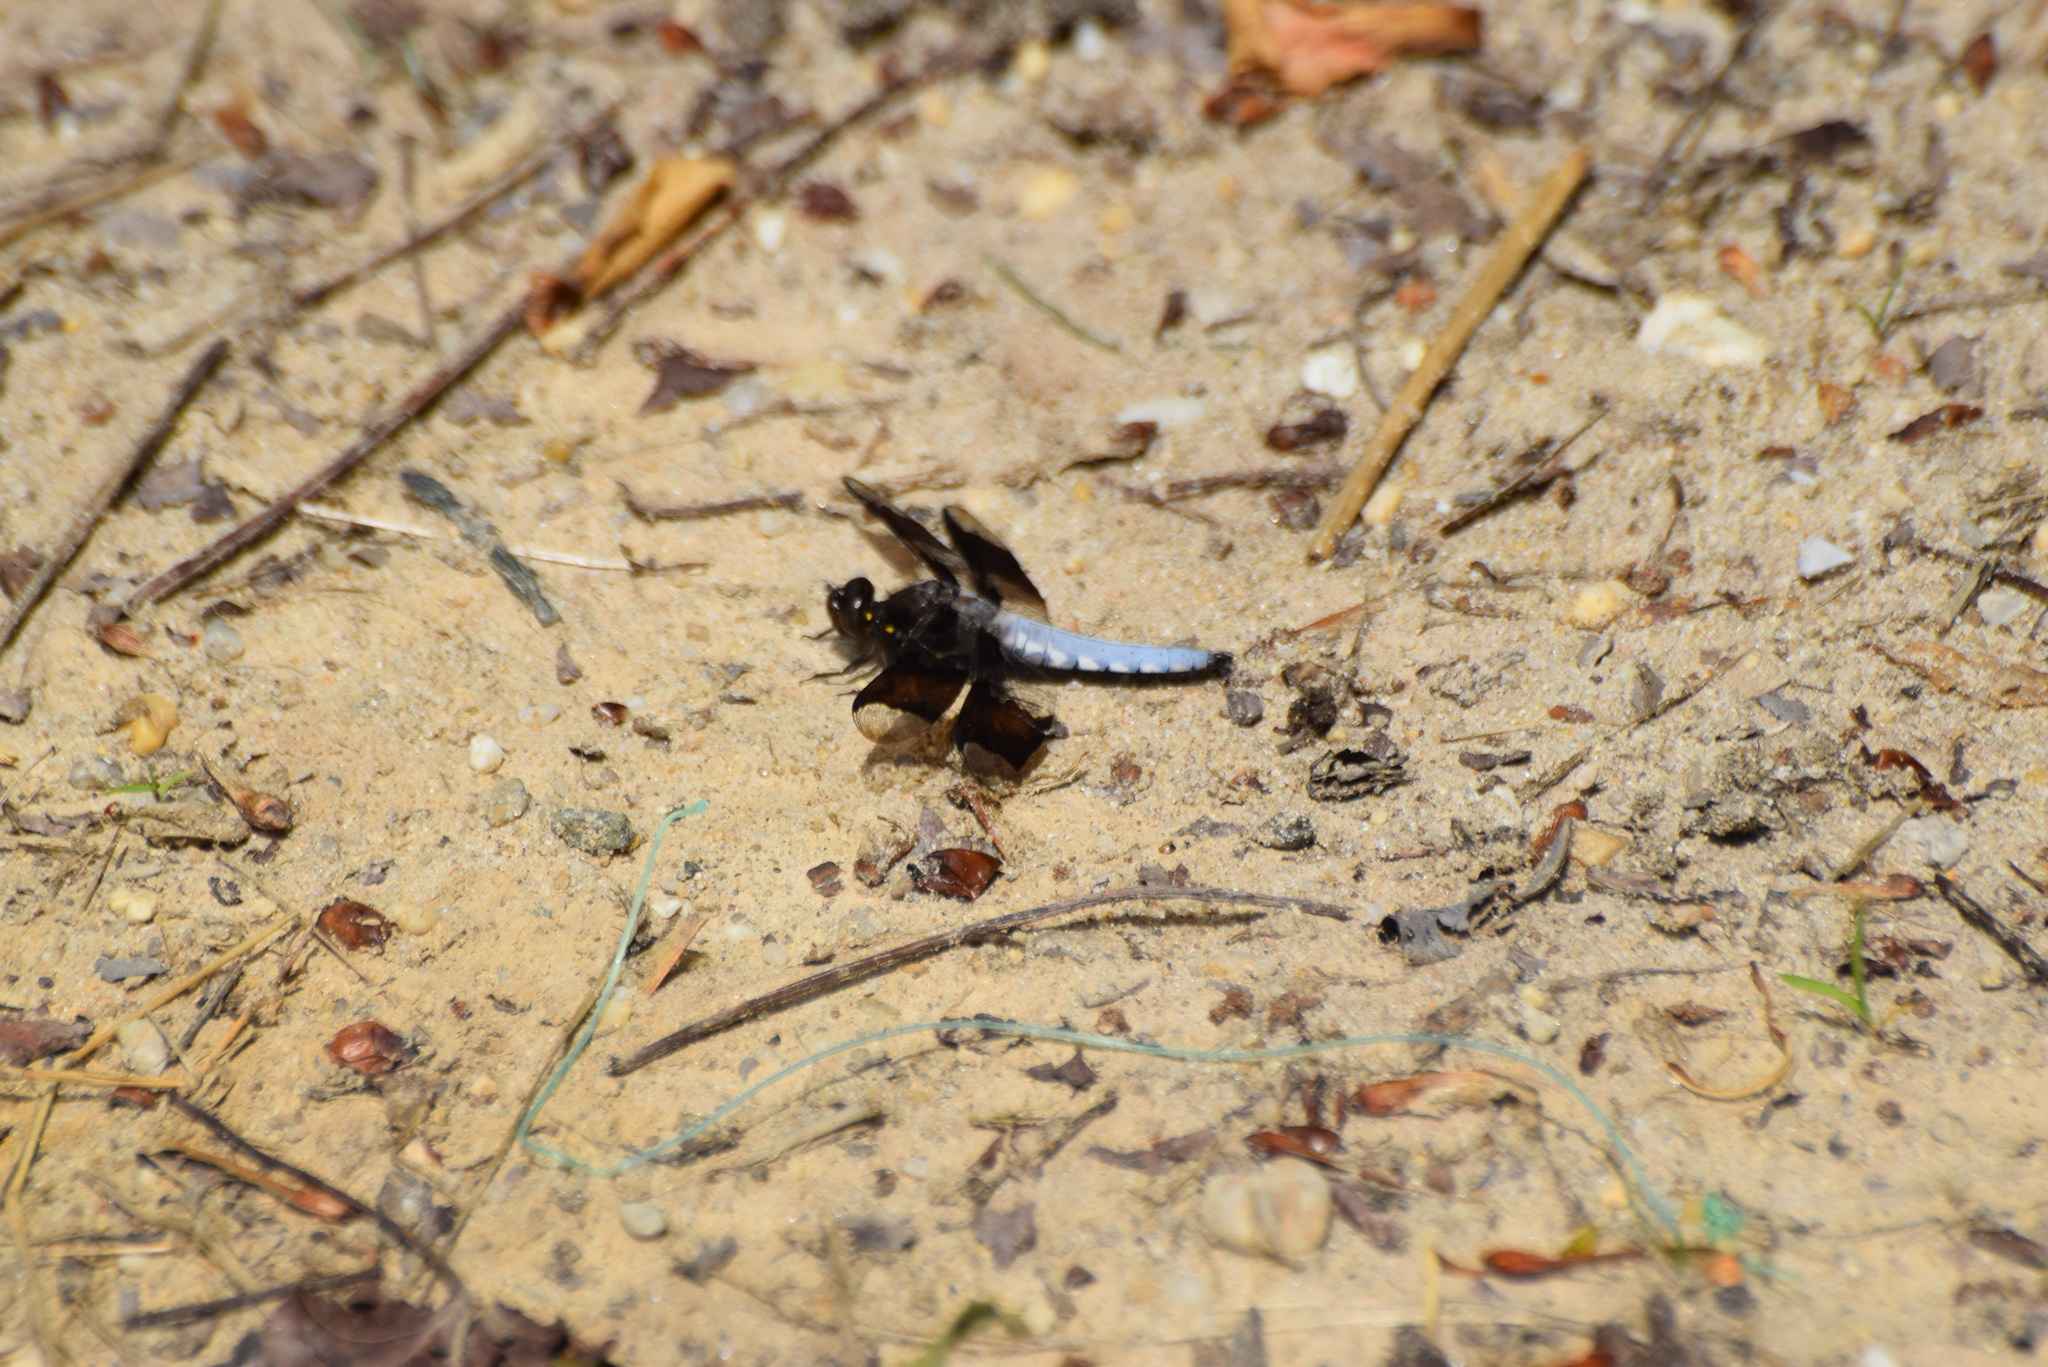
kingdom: Animalia
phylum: Arthropoda
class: Insecta
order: Odonata
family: Libellulidae
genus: Plathemis
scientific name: Plathemis lydia
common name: Common whitetail
